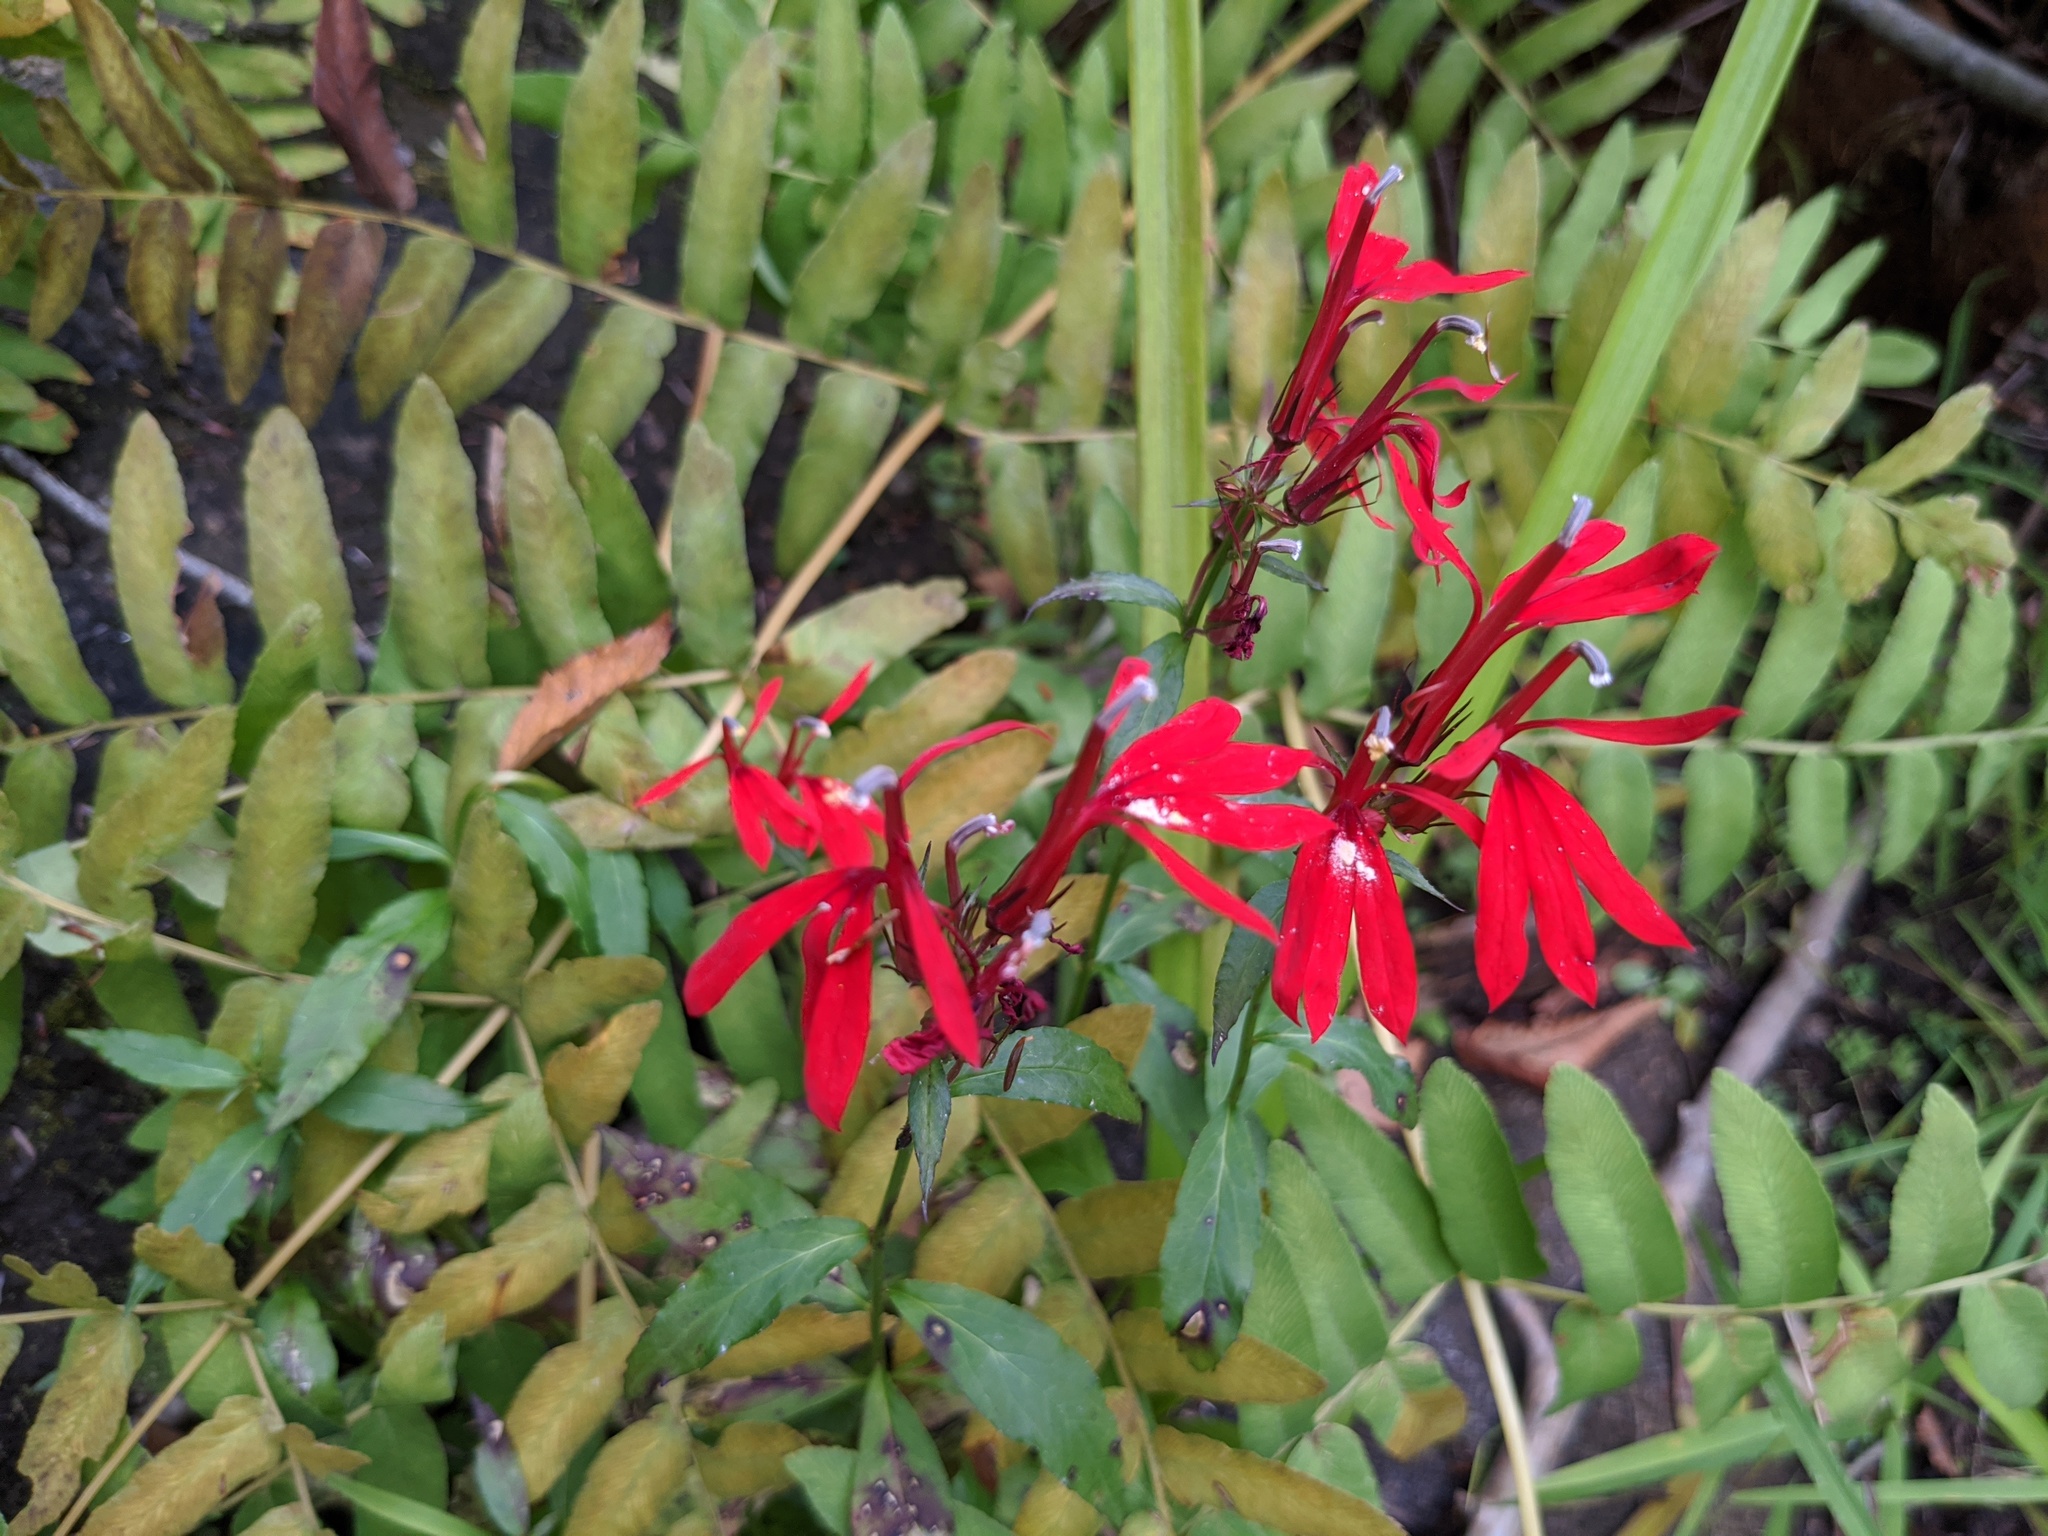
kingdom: Plantae
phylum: Tracheophyta
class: Magnoliopsida
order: Asterales
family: Campanulaceae
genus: Lobelia
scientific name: Lobelia cardinalis
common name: Cardinal flower
